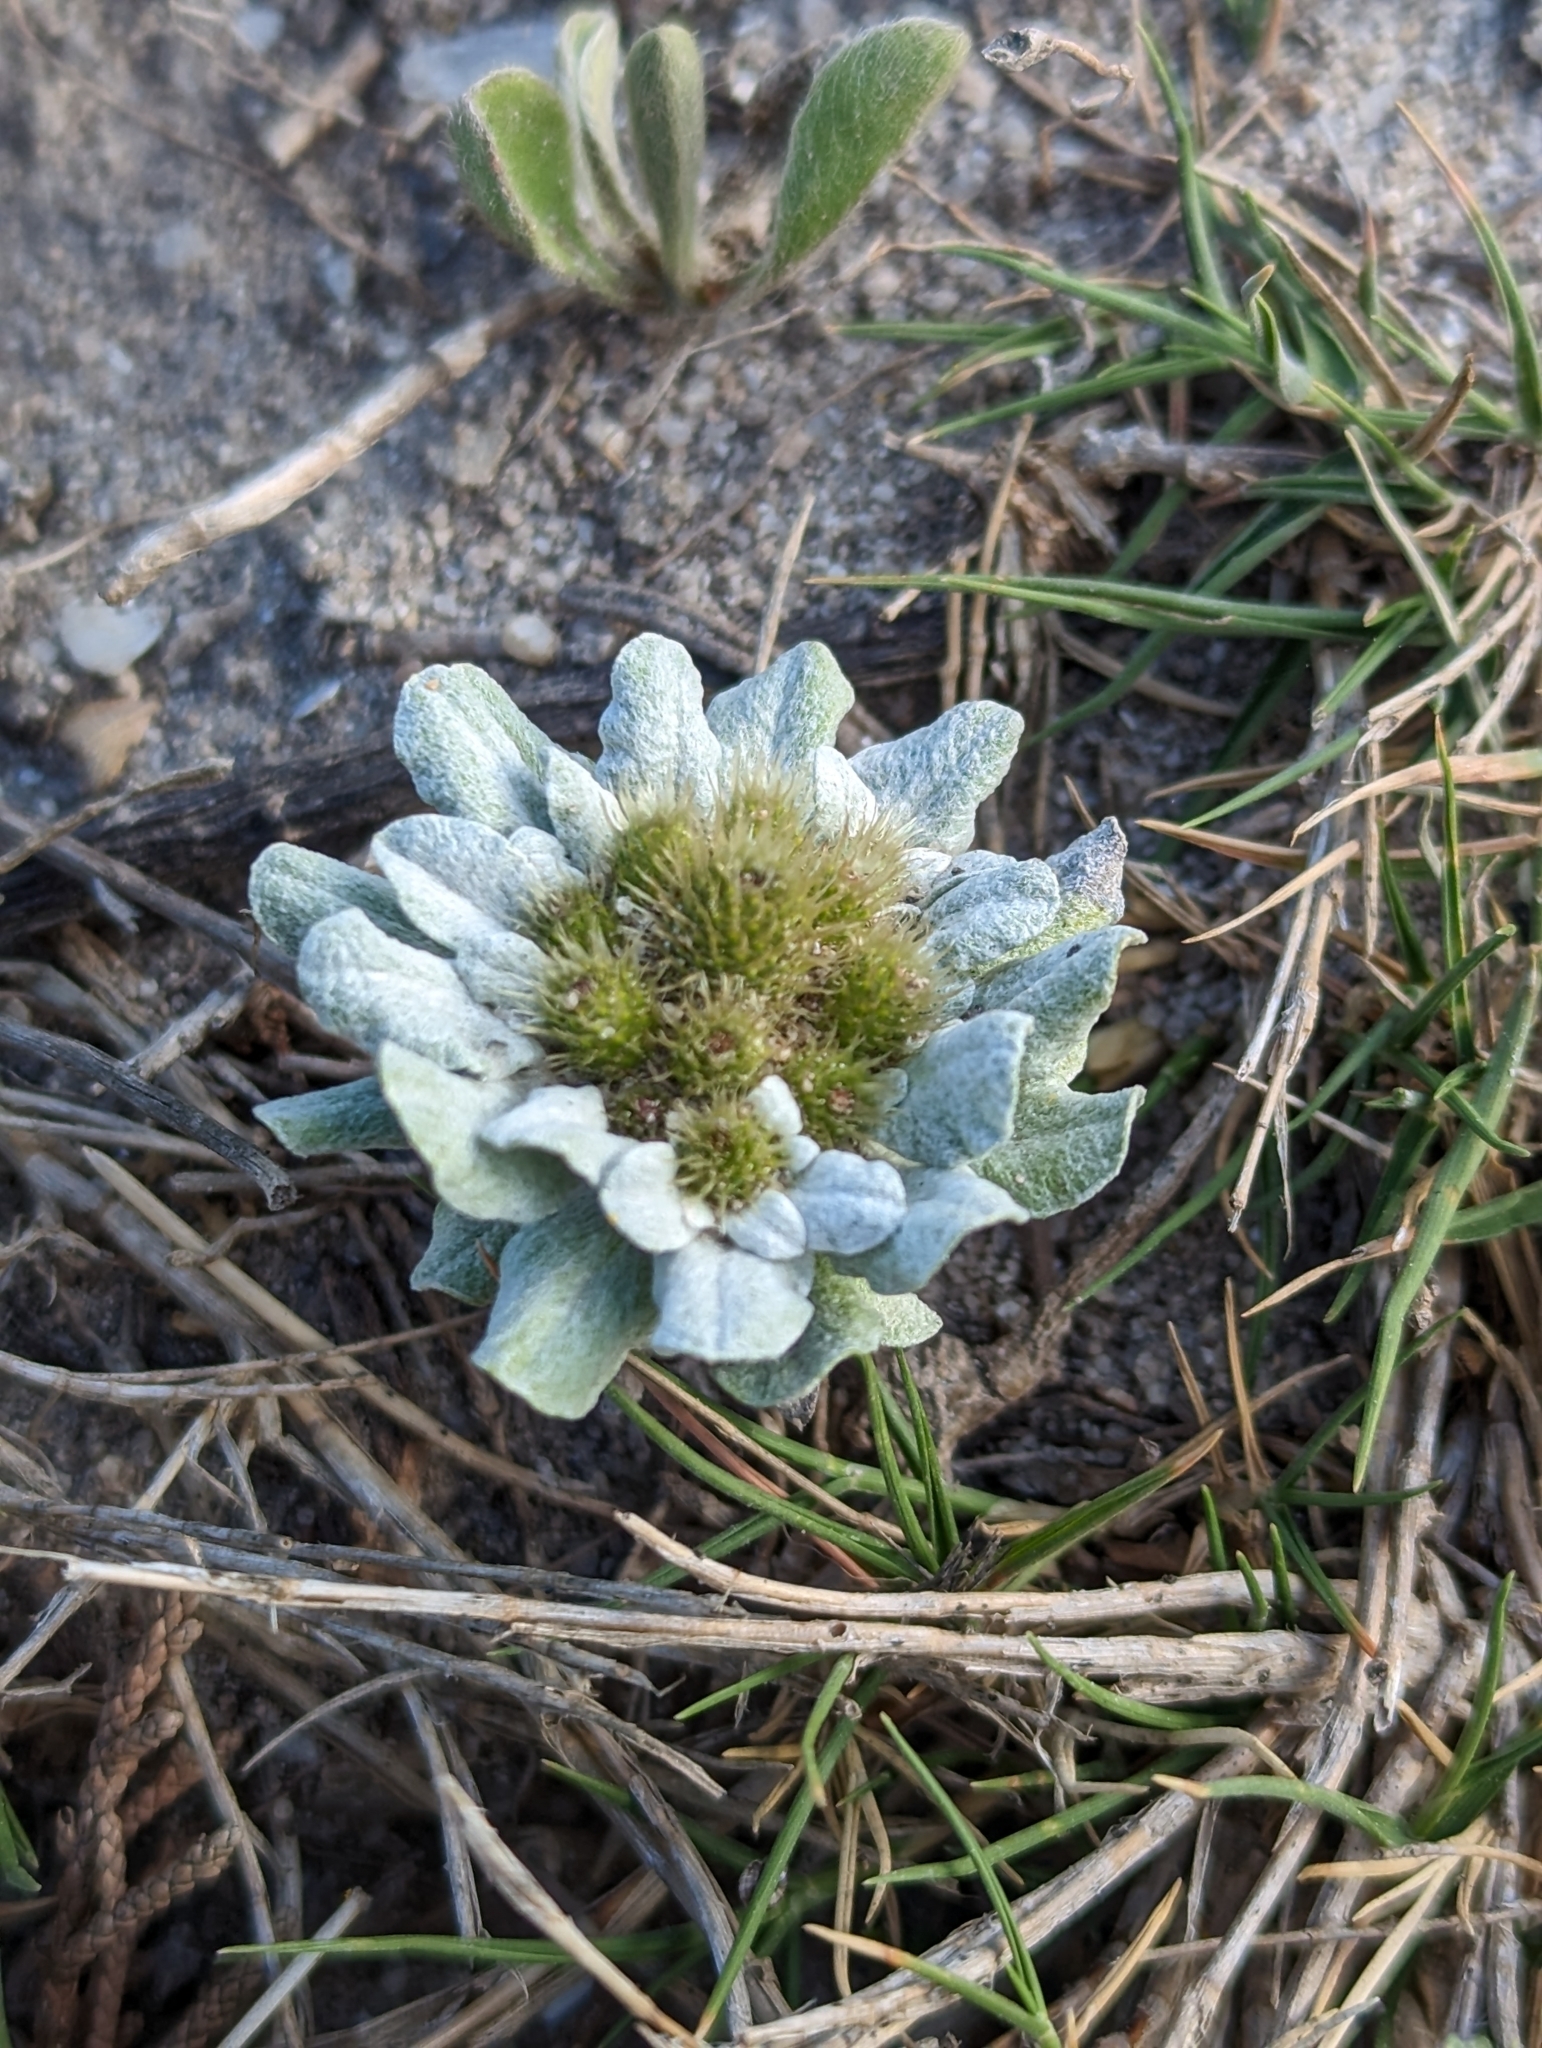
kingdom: Plantae
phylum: Tracheophyta
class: Magnoliopsida
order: Asterales
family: Asteraceae
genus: Filago
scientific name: Filago pygmaea
